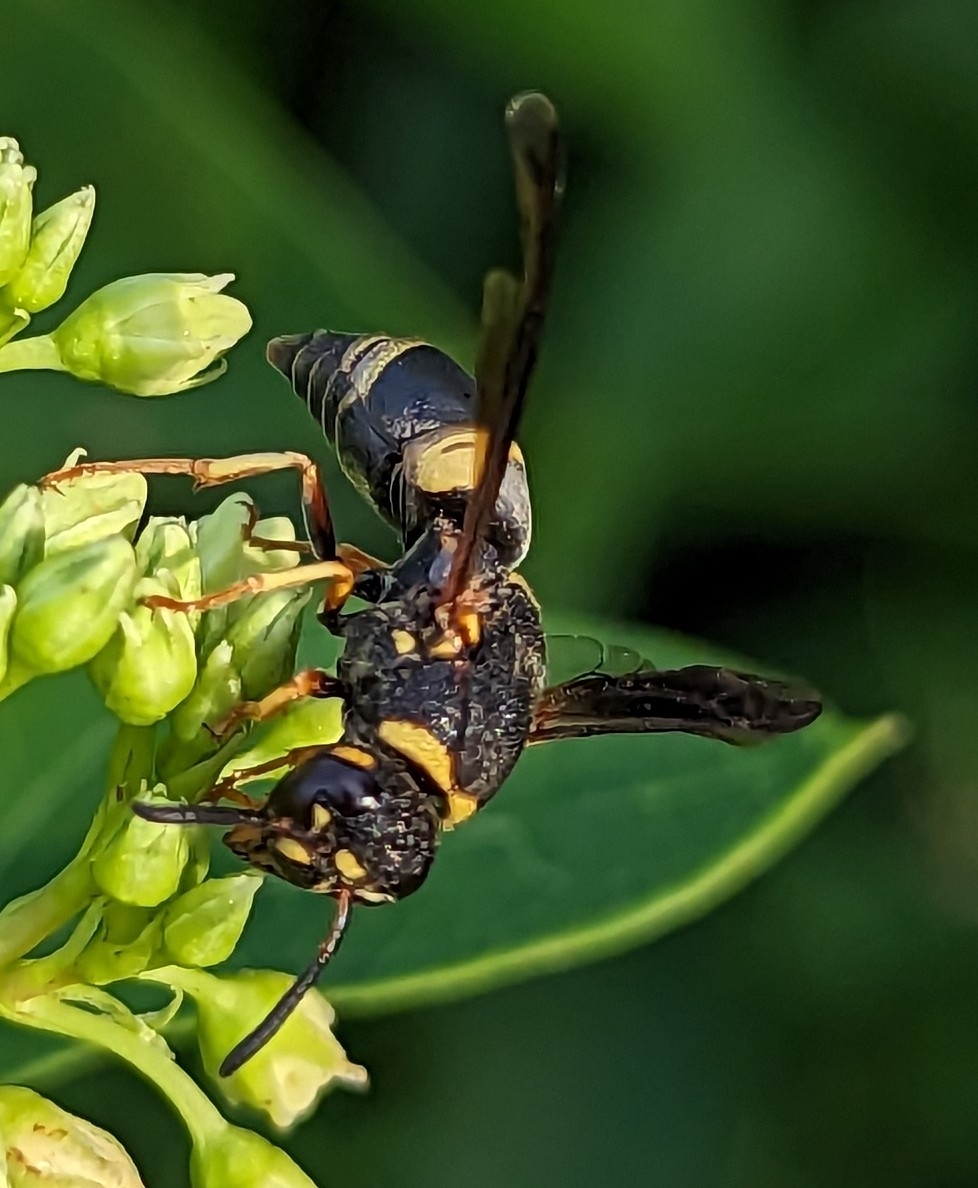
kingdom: Animalia
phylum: Arthropoda
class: Insecta
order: Hymenoptera
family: Eumenidae
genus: Euodynerus
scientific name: Euodynerus hidalgo
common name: Wasp
